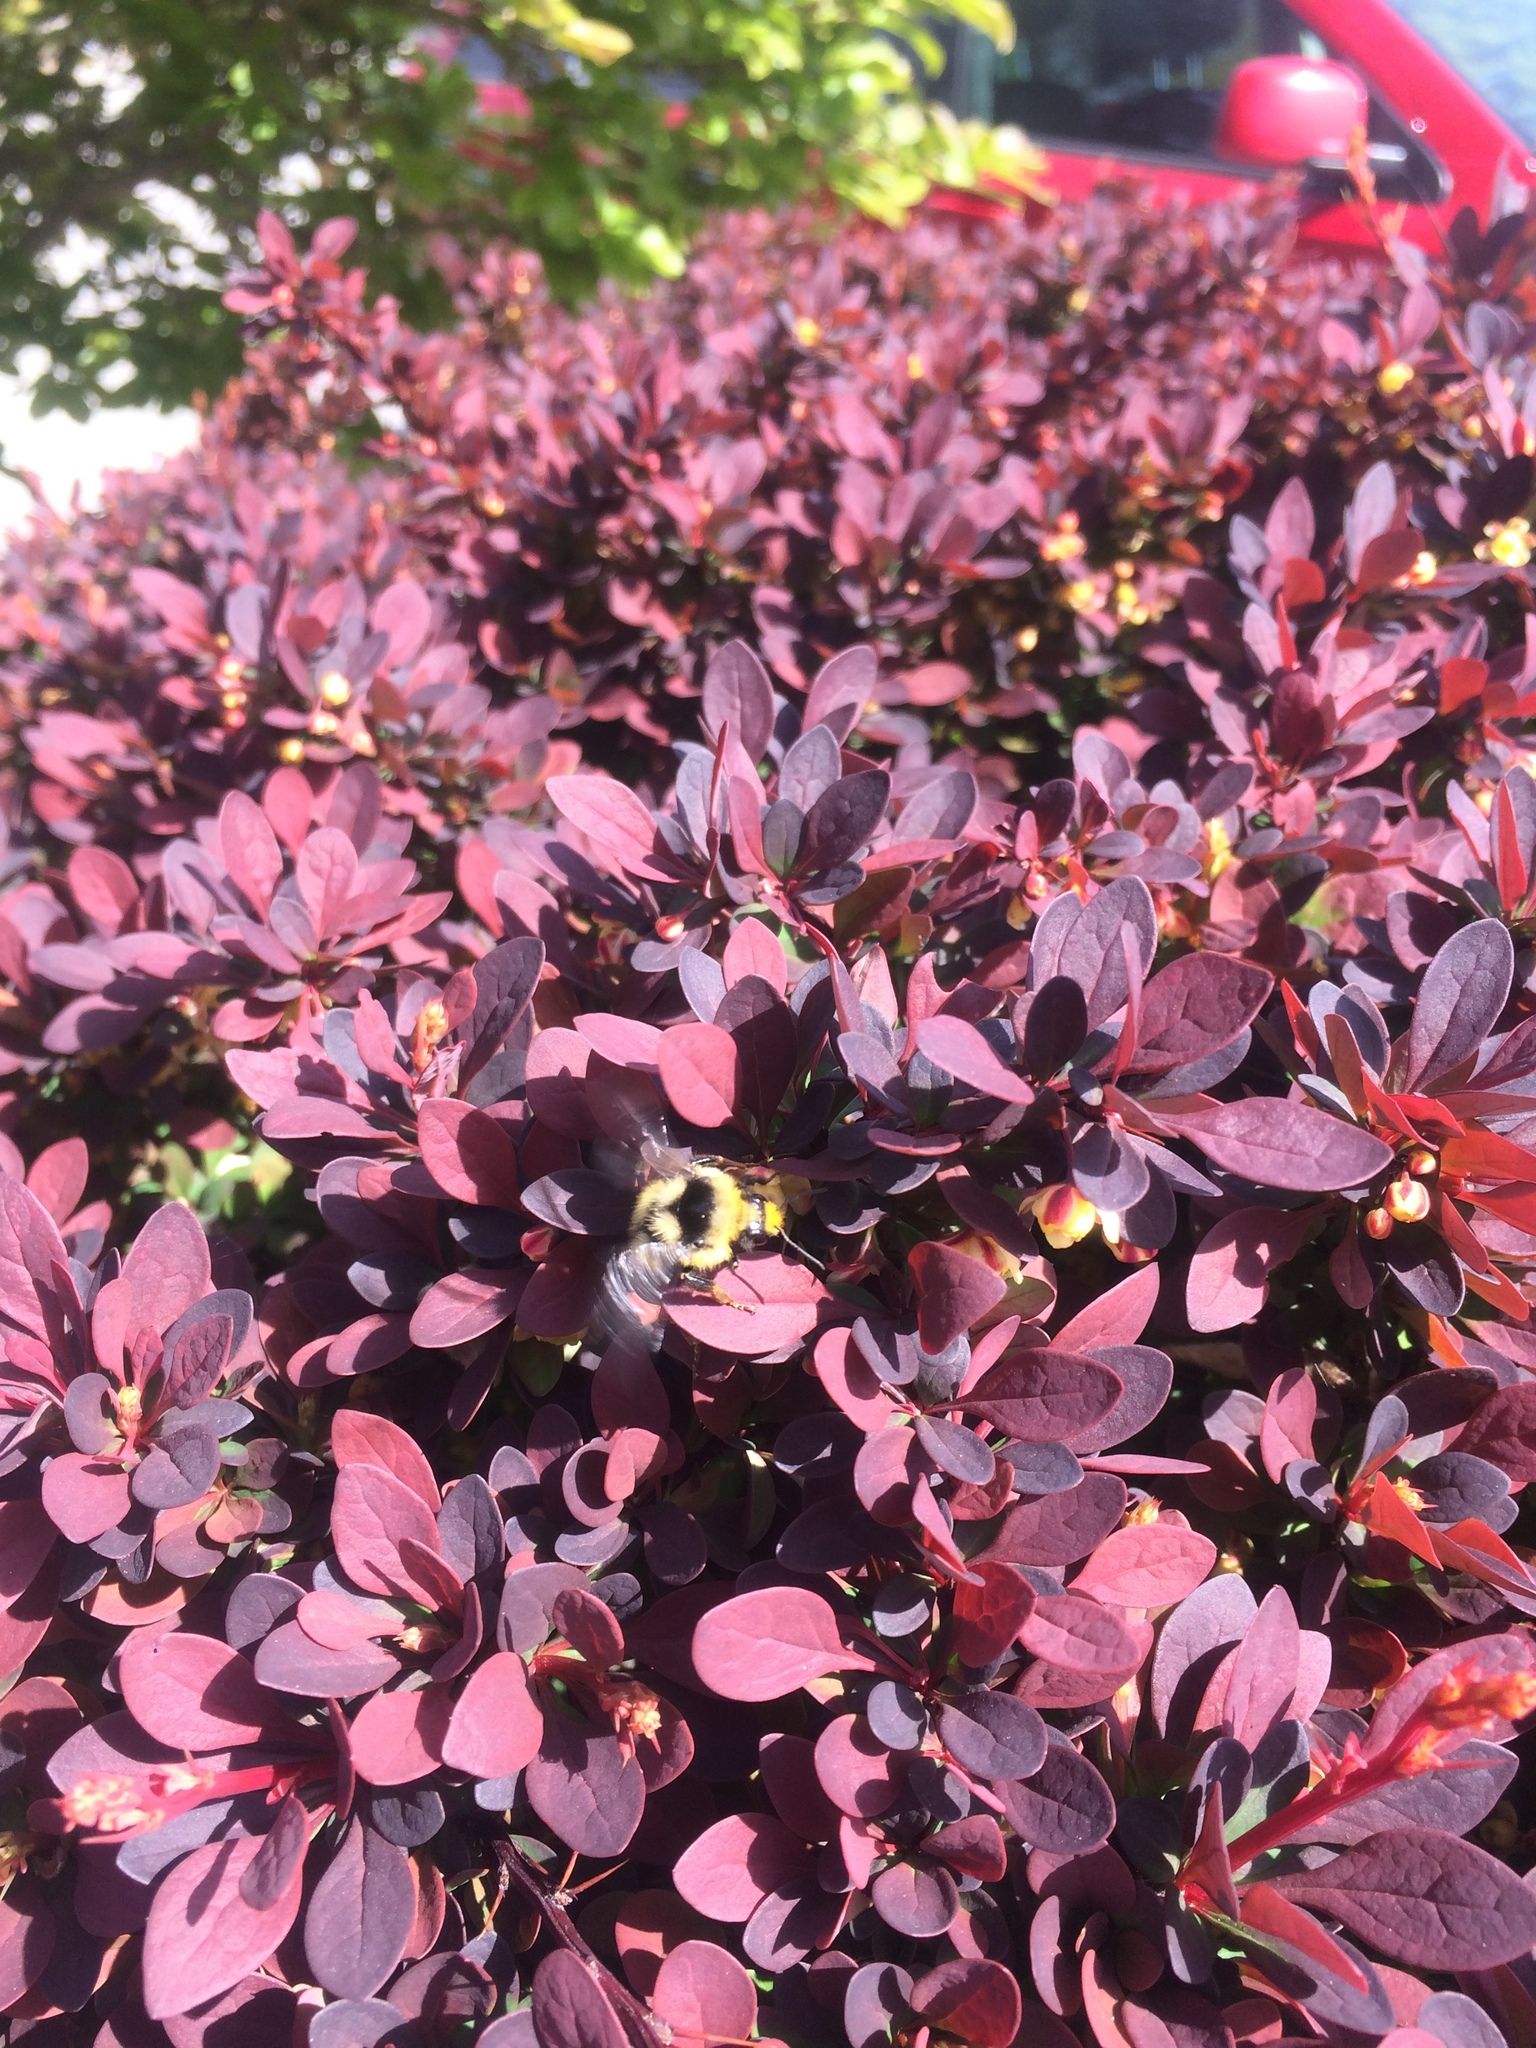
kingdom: Animalia
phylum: Arthropoda
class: Insecta
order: Hymenoptera
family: Apidae
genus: Bombus
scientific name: Bombus vancouverensis
